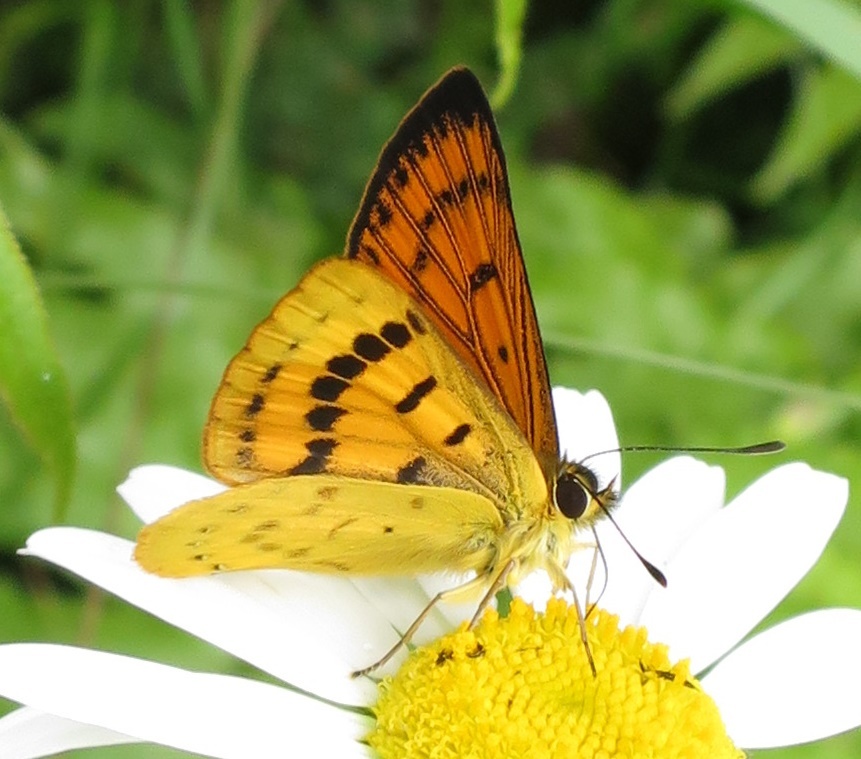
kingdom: Animalia
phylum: Arthropoda
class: Insecta
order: Lepidoptera
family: Lycaenidae
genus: Lycaena
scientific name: Lycaena salustius
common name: North island coastal copper
